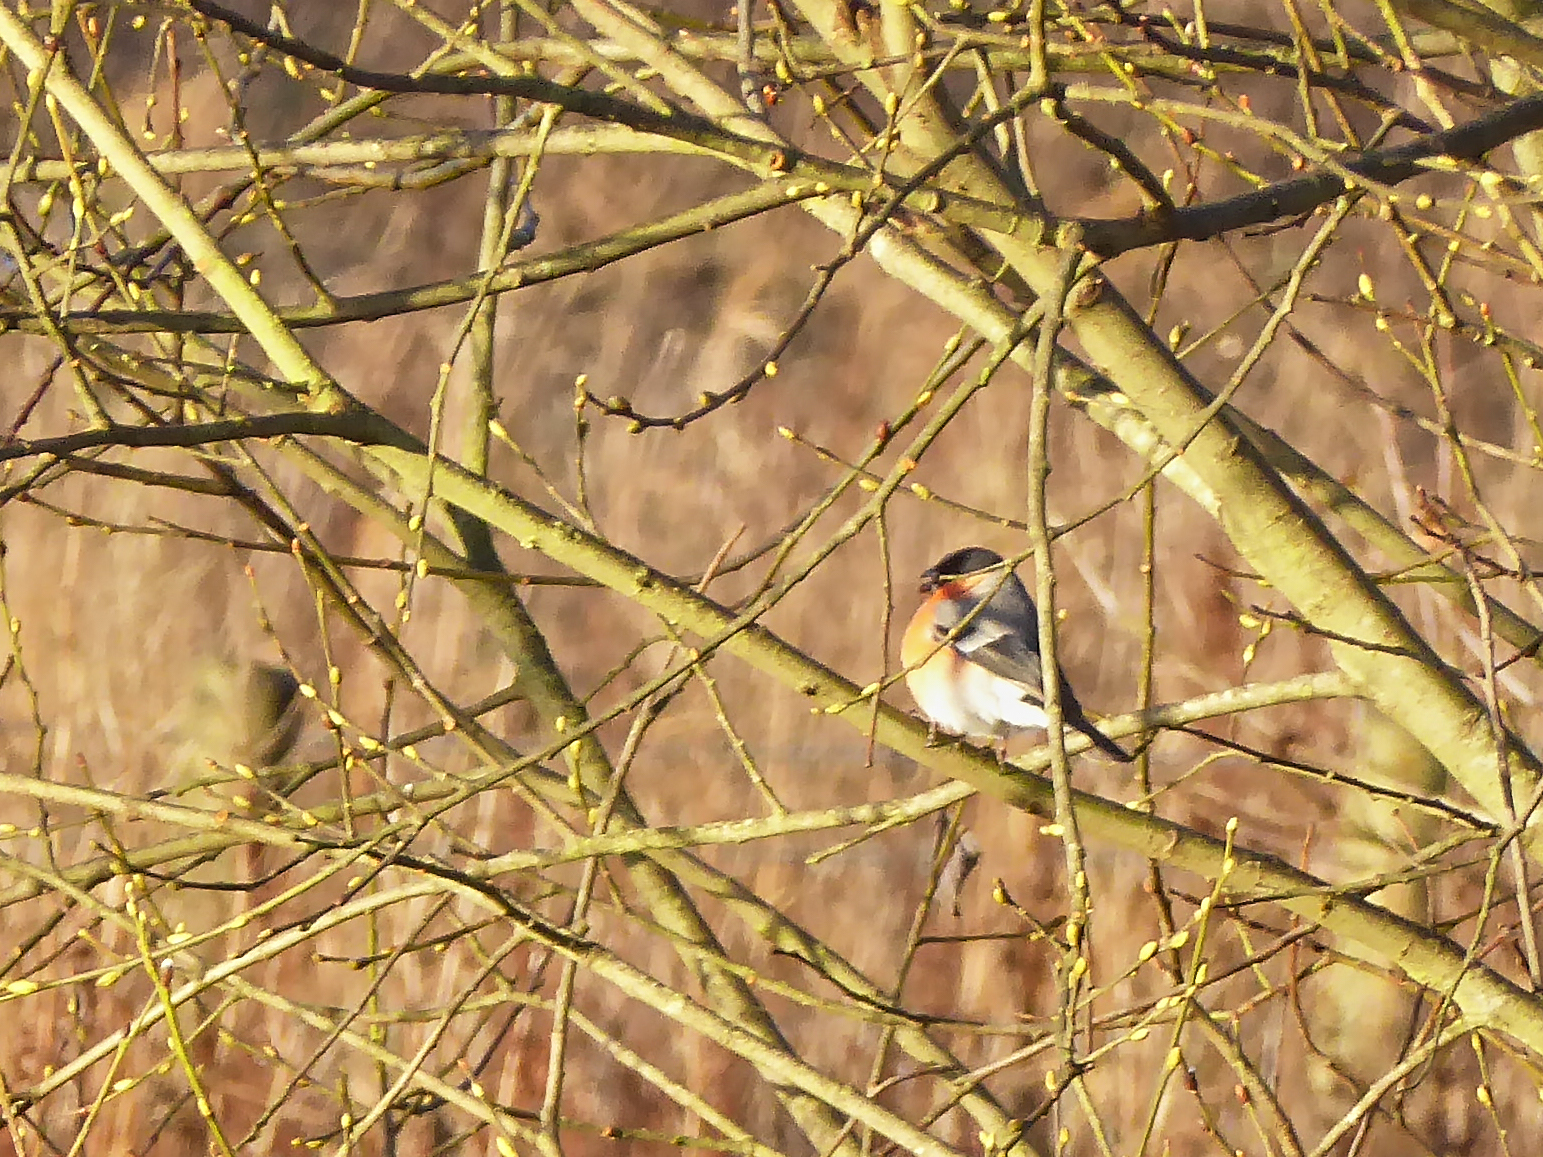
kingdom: Animalia
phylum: Chordata
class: Aves
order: Passeriformes
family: Fringillidae
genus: Pyrrhula
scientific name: Pyrrhula pyrrhula
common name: Eurasian bullfinch
